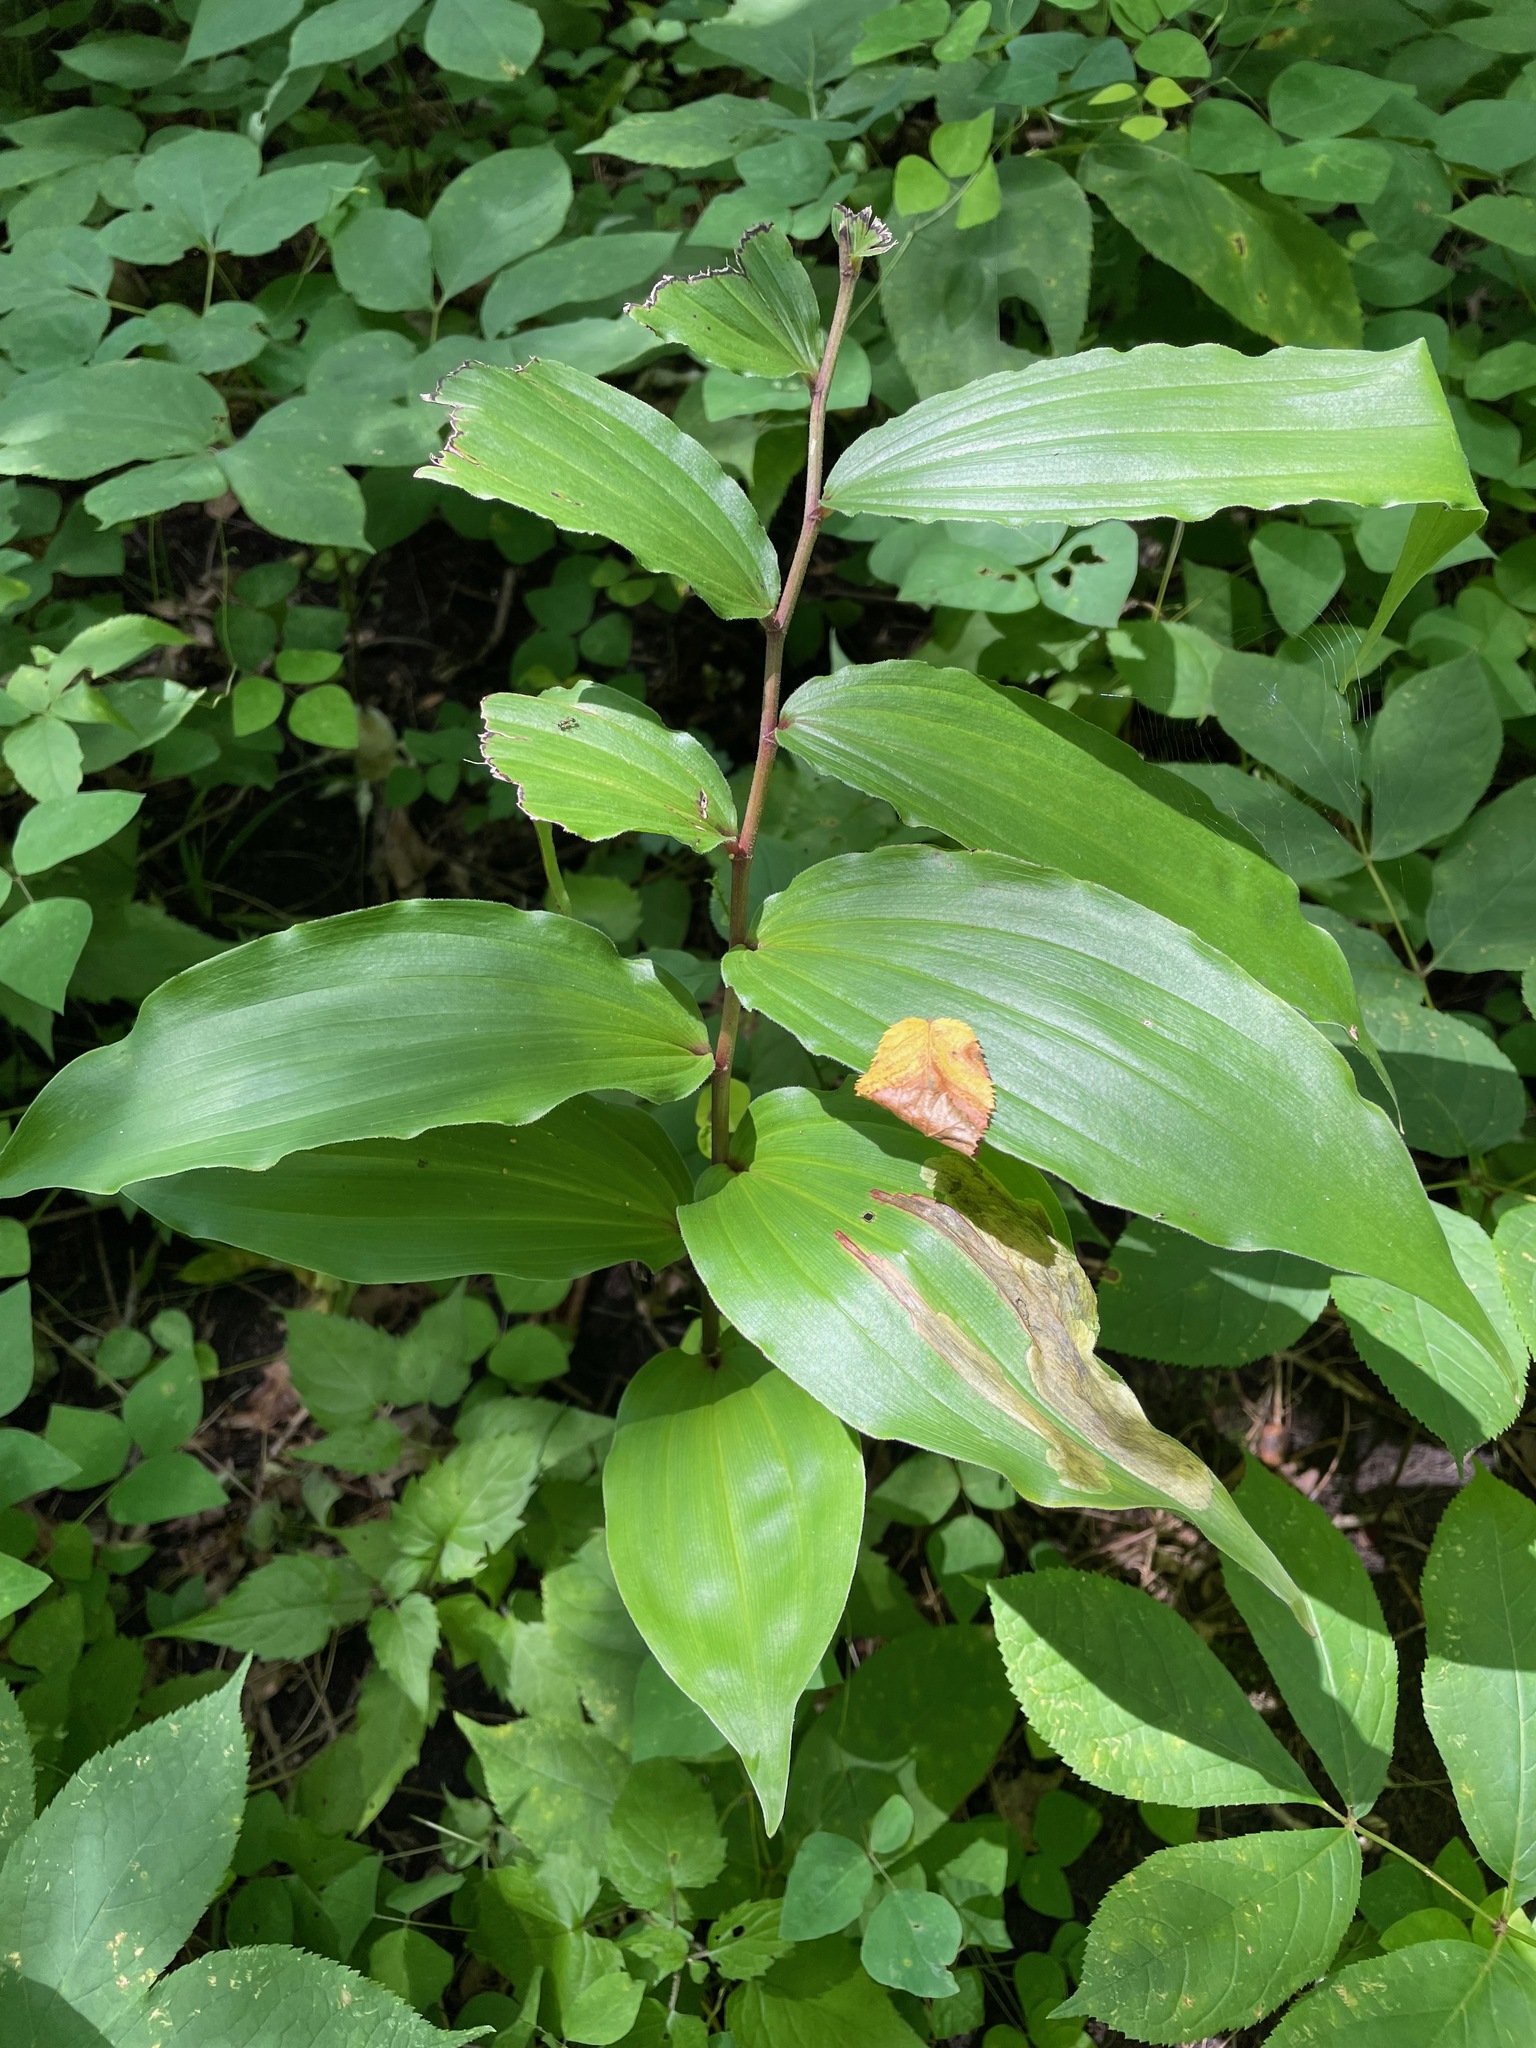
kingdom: Plantae
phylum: Tracheophyta
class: Liliopsida
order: Asparagales
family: Asparagaceae
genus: Maianthemum
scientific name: Maianthemum racemosum
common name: False spikenard
